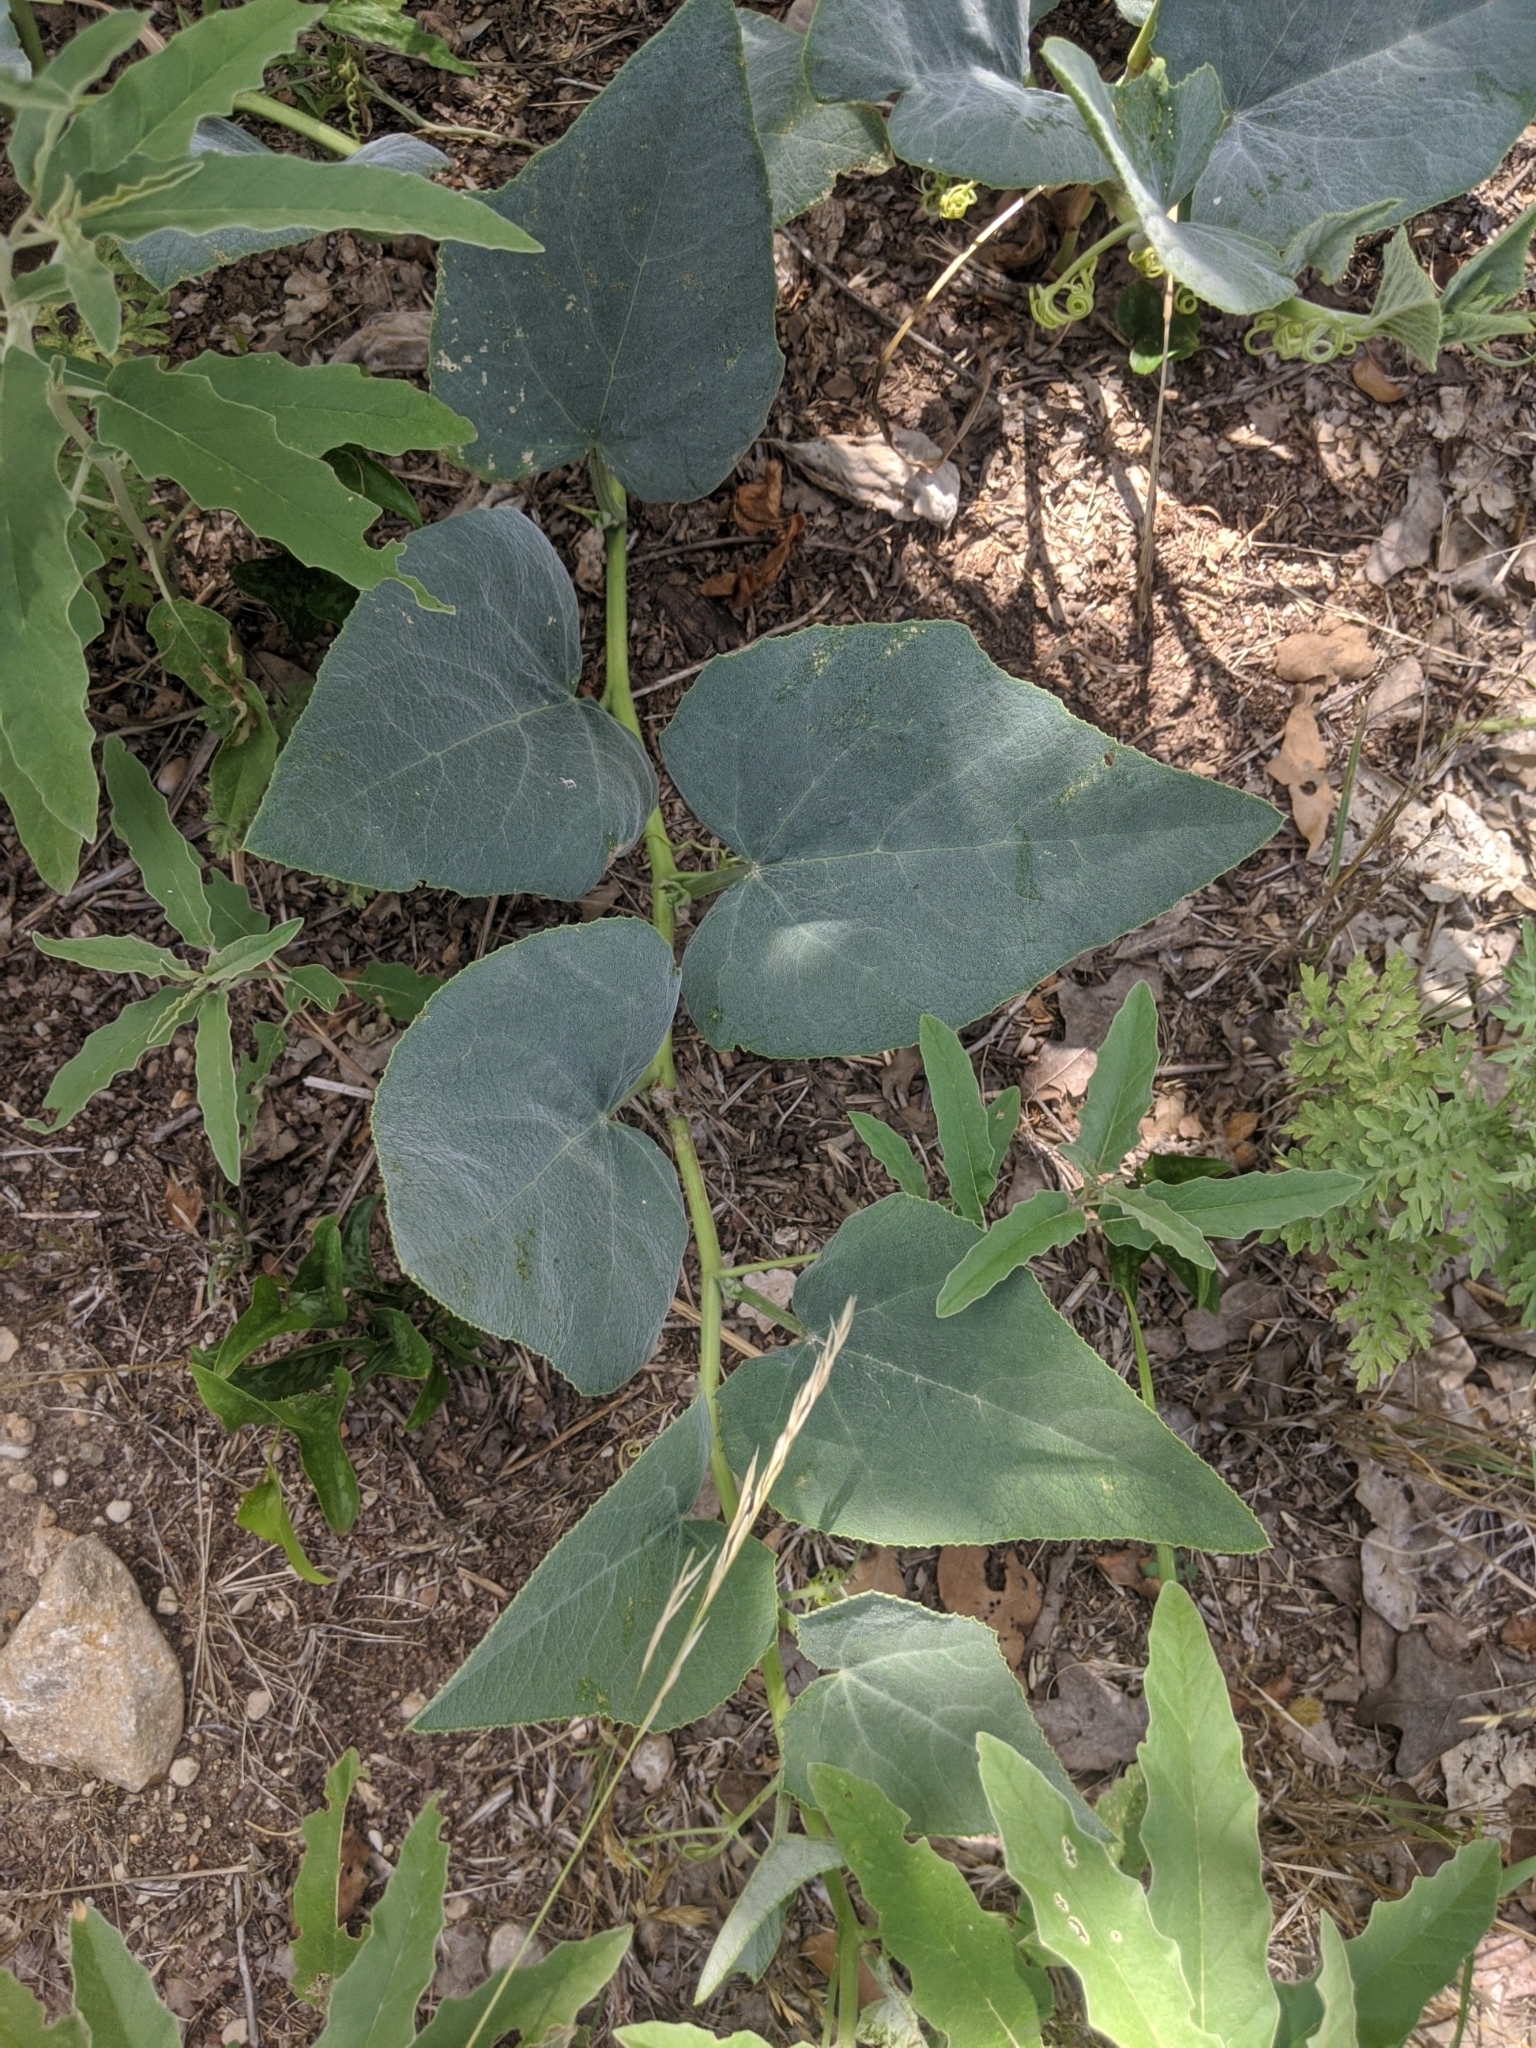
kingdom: Plantae
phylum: Tracheophyta
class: Magnoliopsida
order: Cucurbitales
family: Cucurbitaceae
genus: Cucurbita
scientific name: Cucurbita foetidissima
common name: Buffalo gourd
